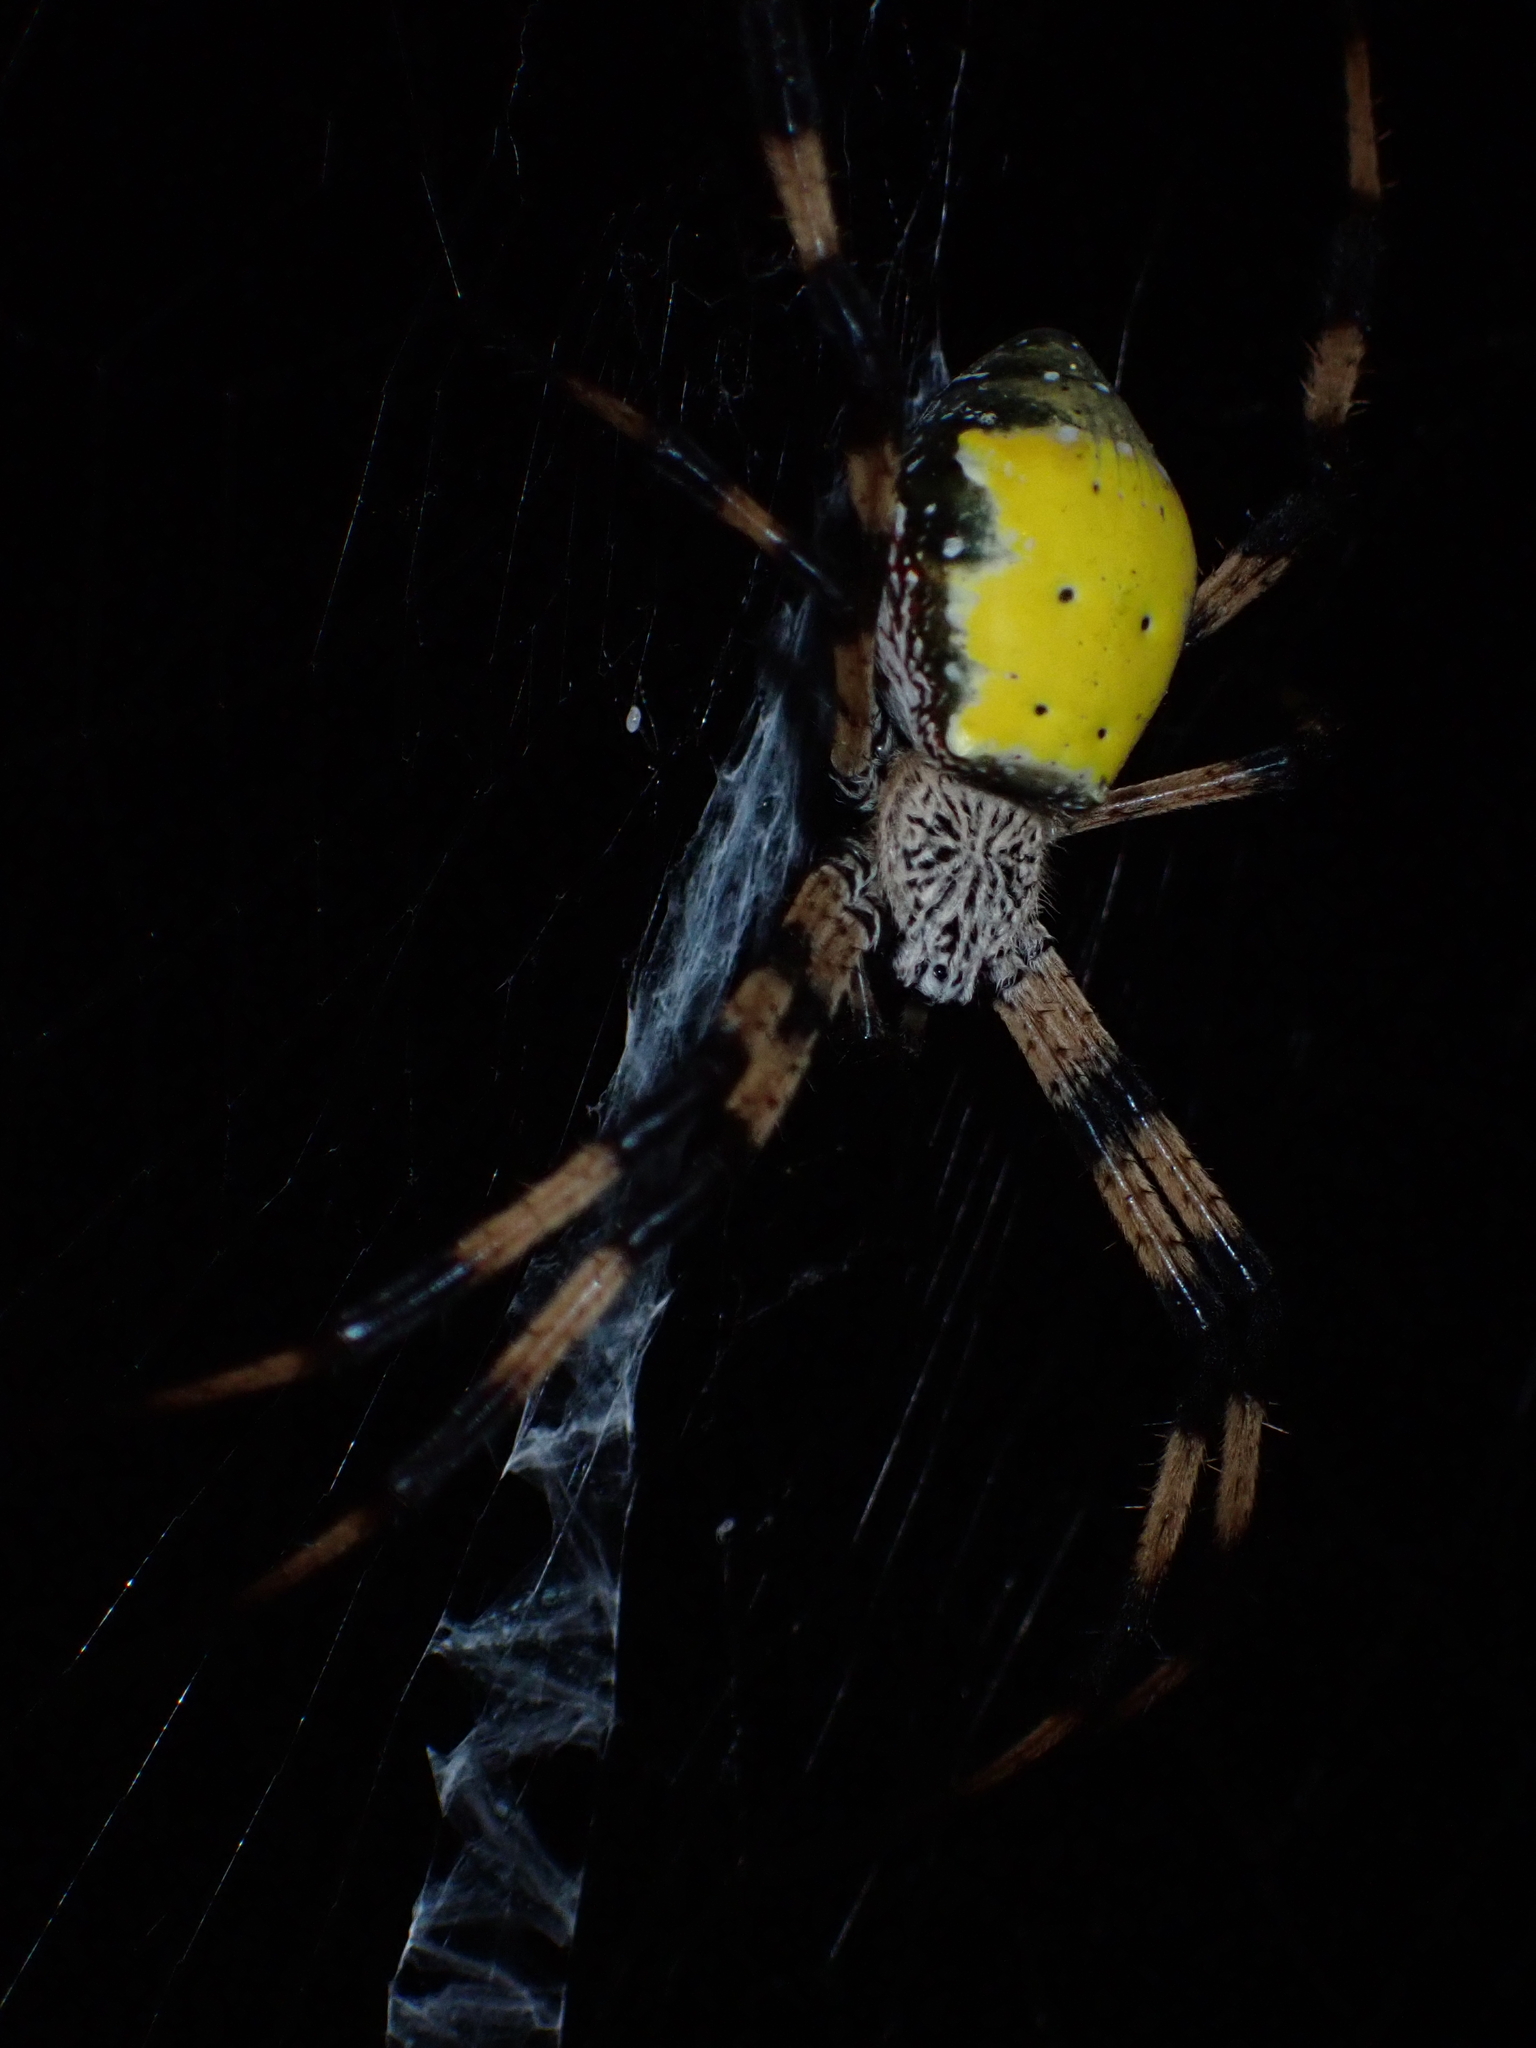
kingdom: Animalia
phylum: Arthropoda
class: Arachnida
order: Araneae
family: Araneidae
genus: Argiope
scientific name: Argiope aetherea
